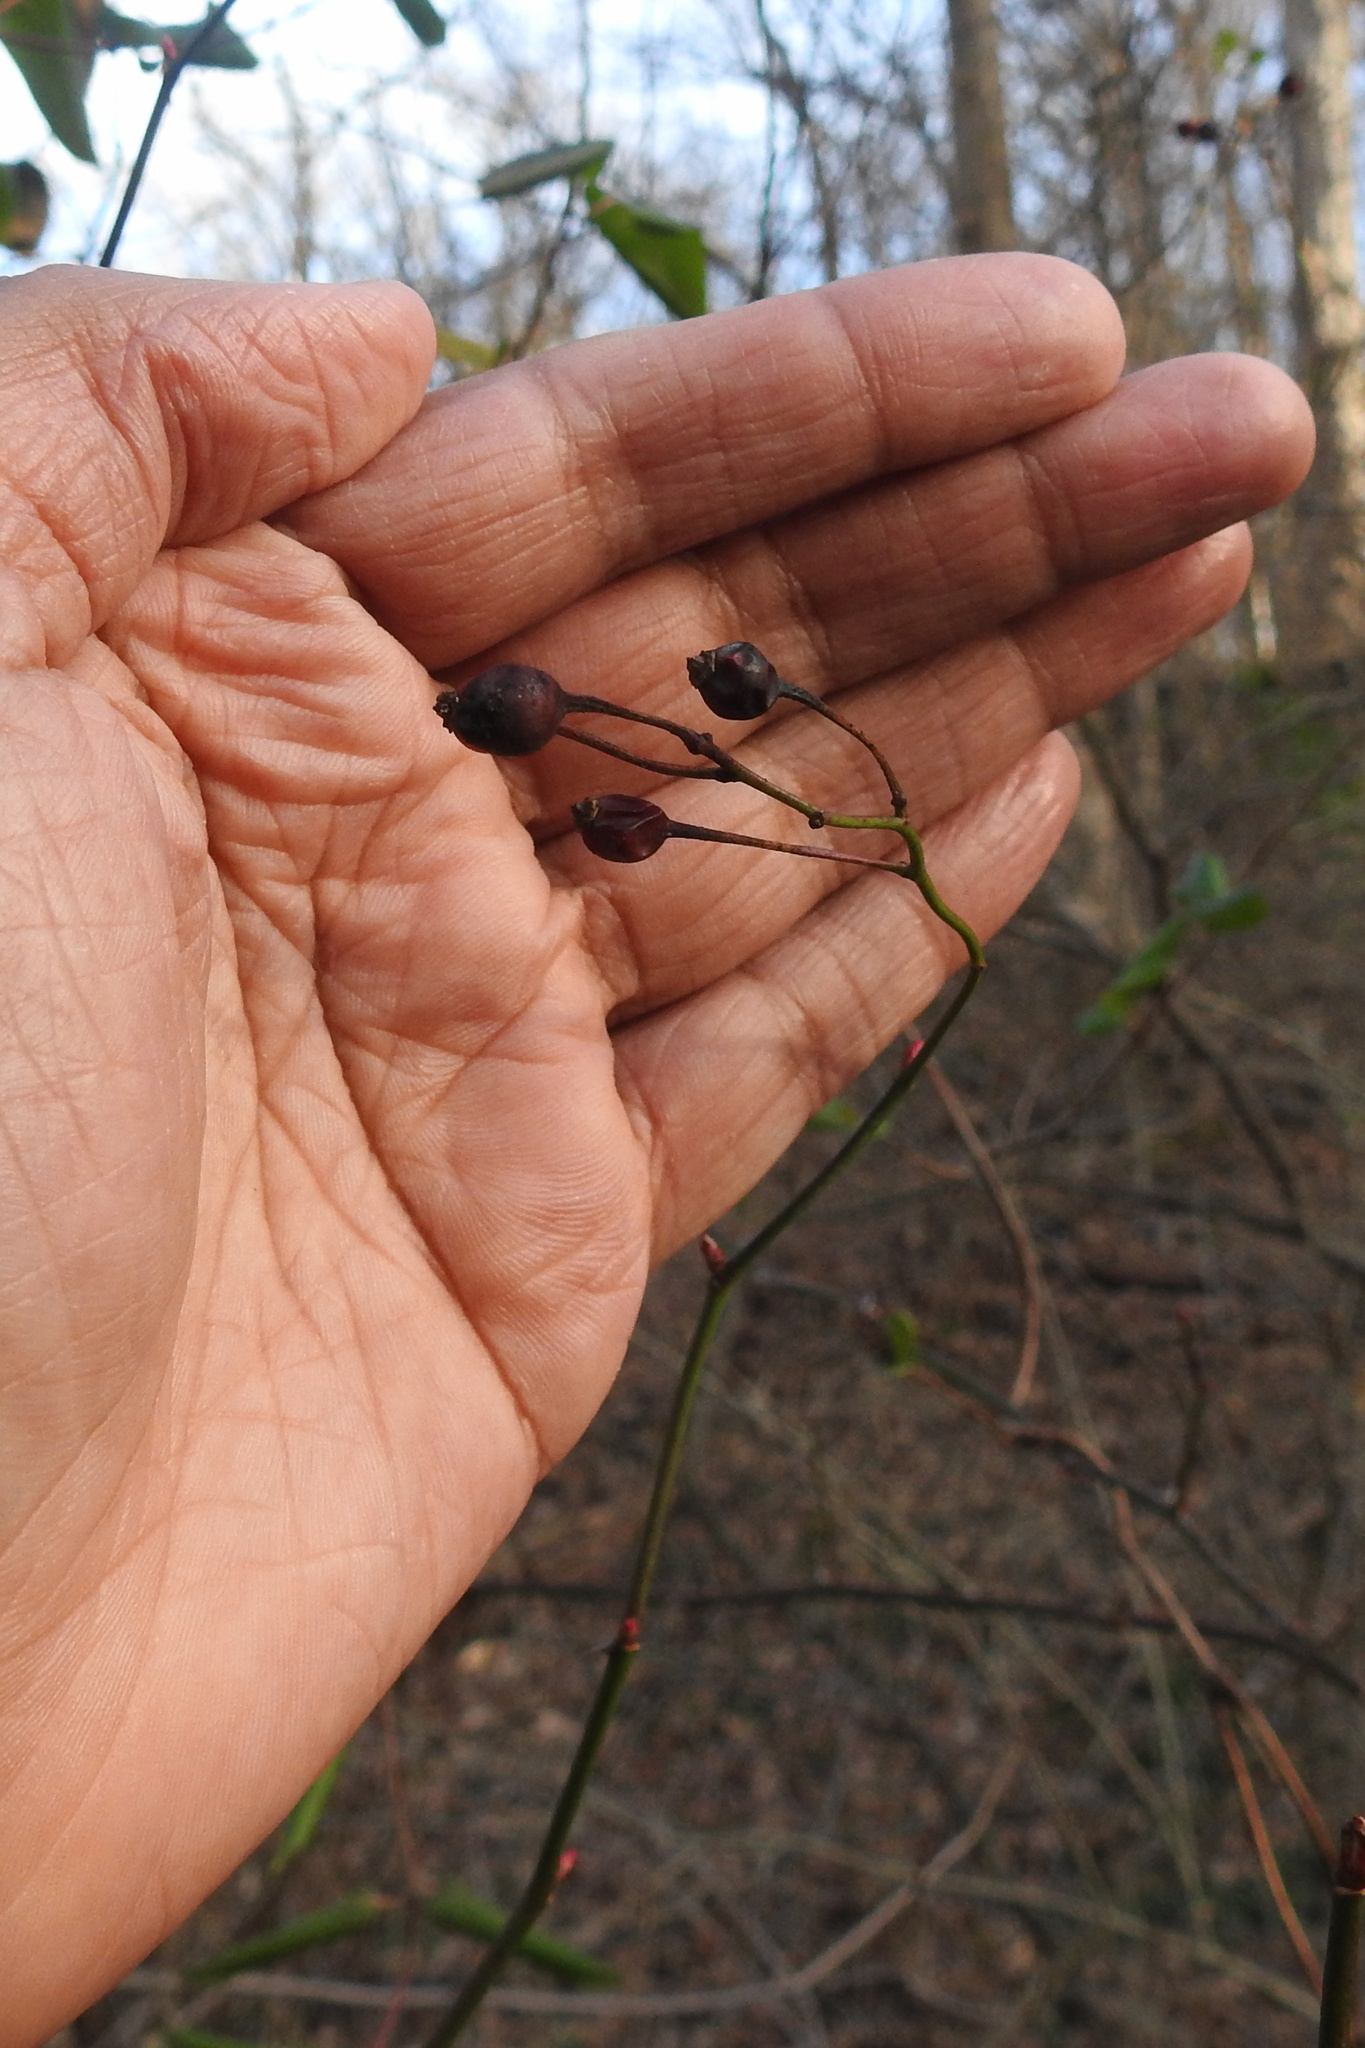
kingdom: Plantae
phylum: Tracheophyta
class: Magnoliopsida
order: Rosales
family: Rosaceae
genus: Rosa
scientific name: Rosa multiflora
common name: Multiflora rose
